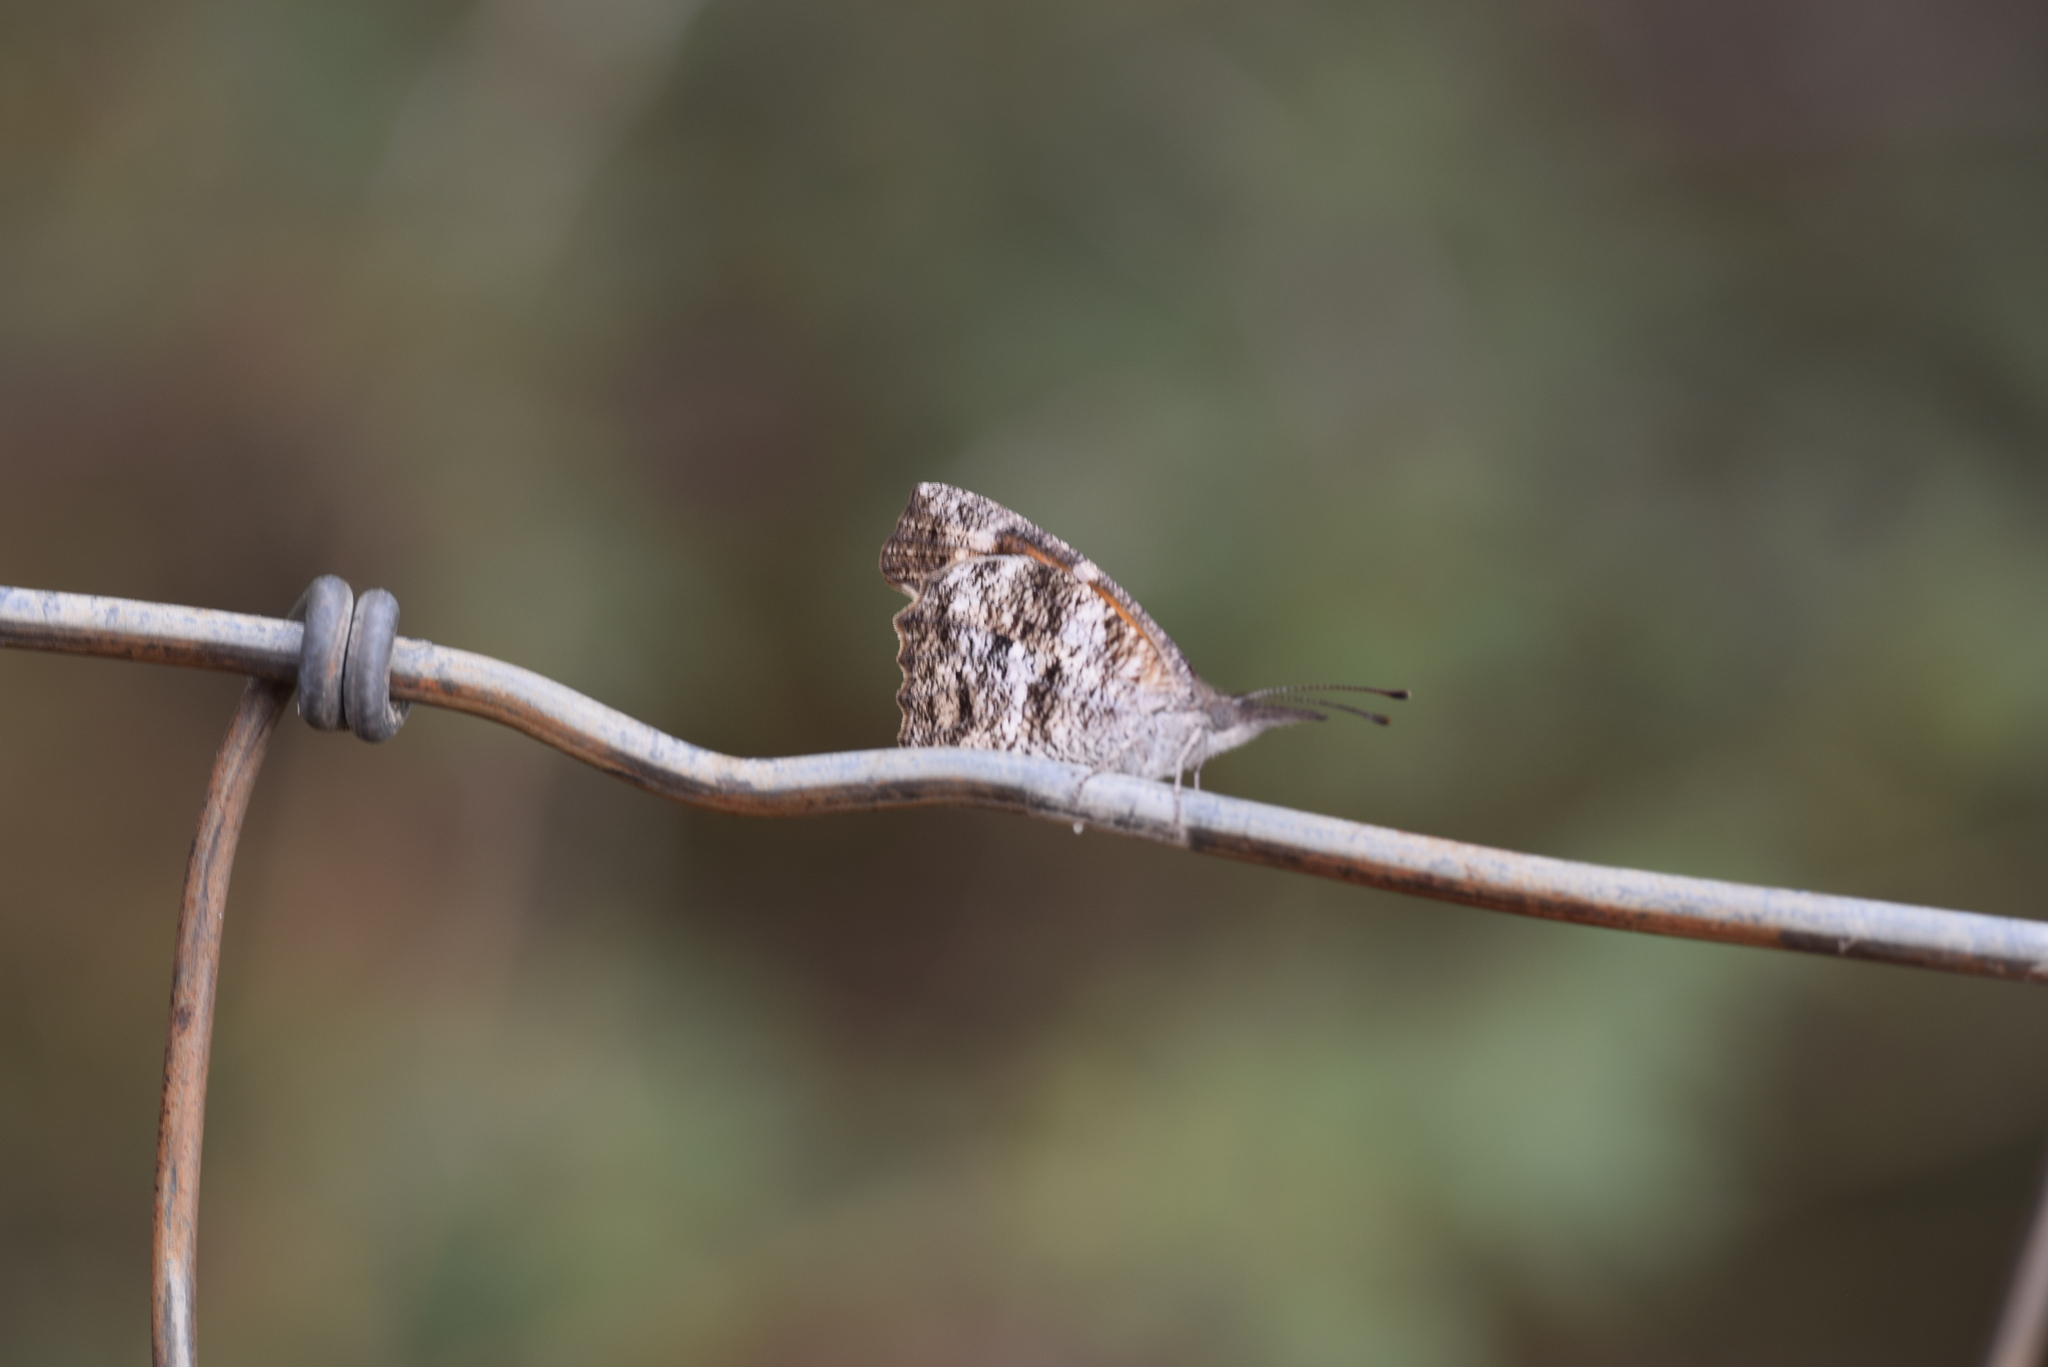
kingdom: Animalia
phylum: Arthropoda
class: Insecta
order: Lepidoptera
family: Nymphalidae
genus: Libytheana
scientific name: Libytheana carinenta
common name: American snout
